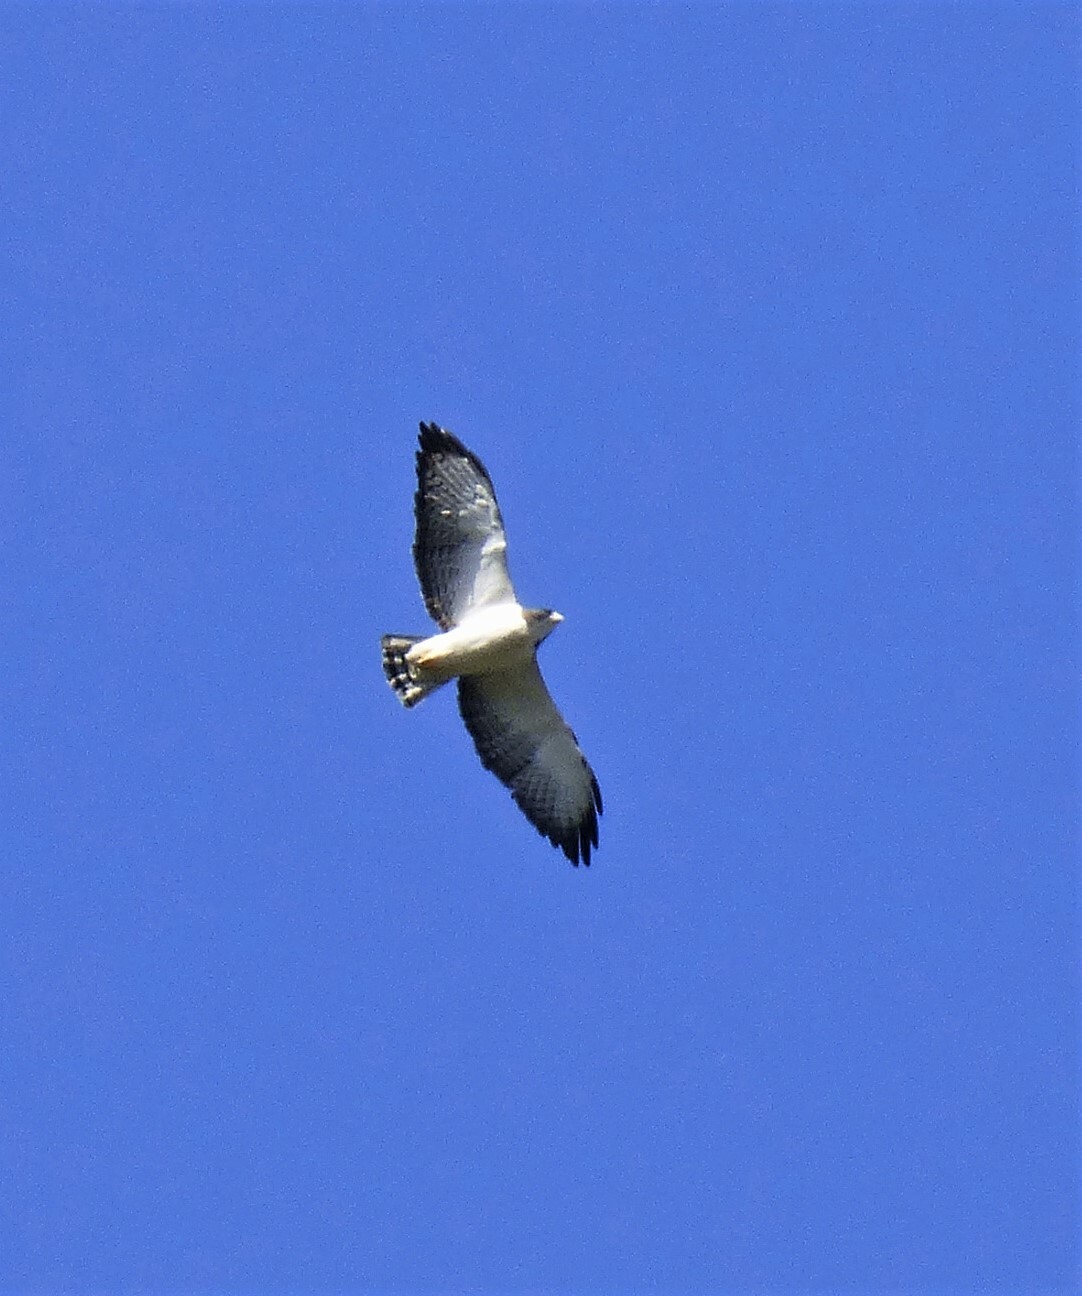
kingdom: Animalia
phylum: Chordata
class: Aves
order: Accipitriformes
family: Accipitridae
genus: Buteo
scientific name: Buteo brachyurus
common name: Short-tailed hawk
